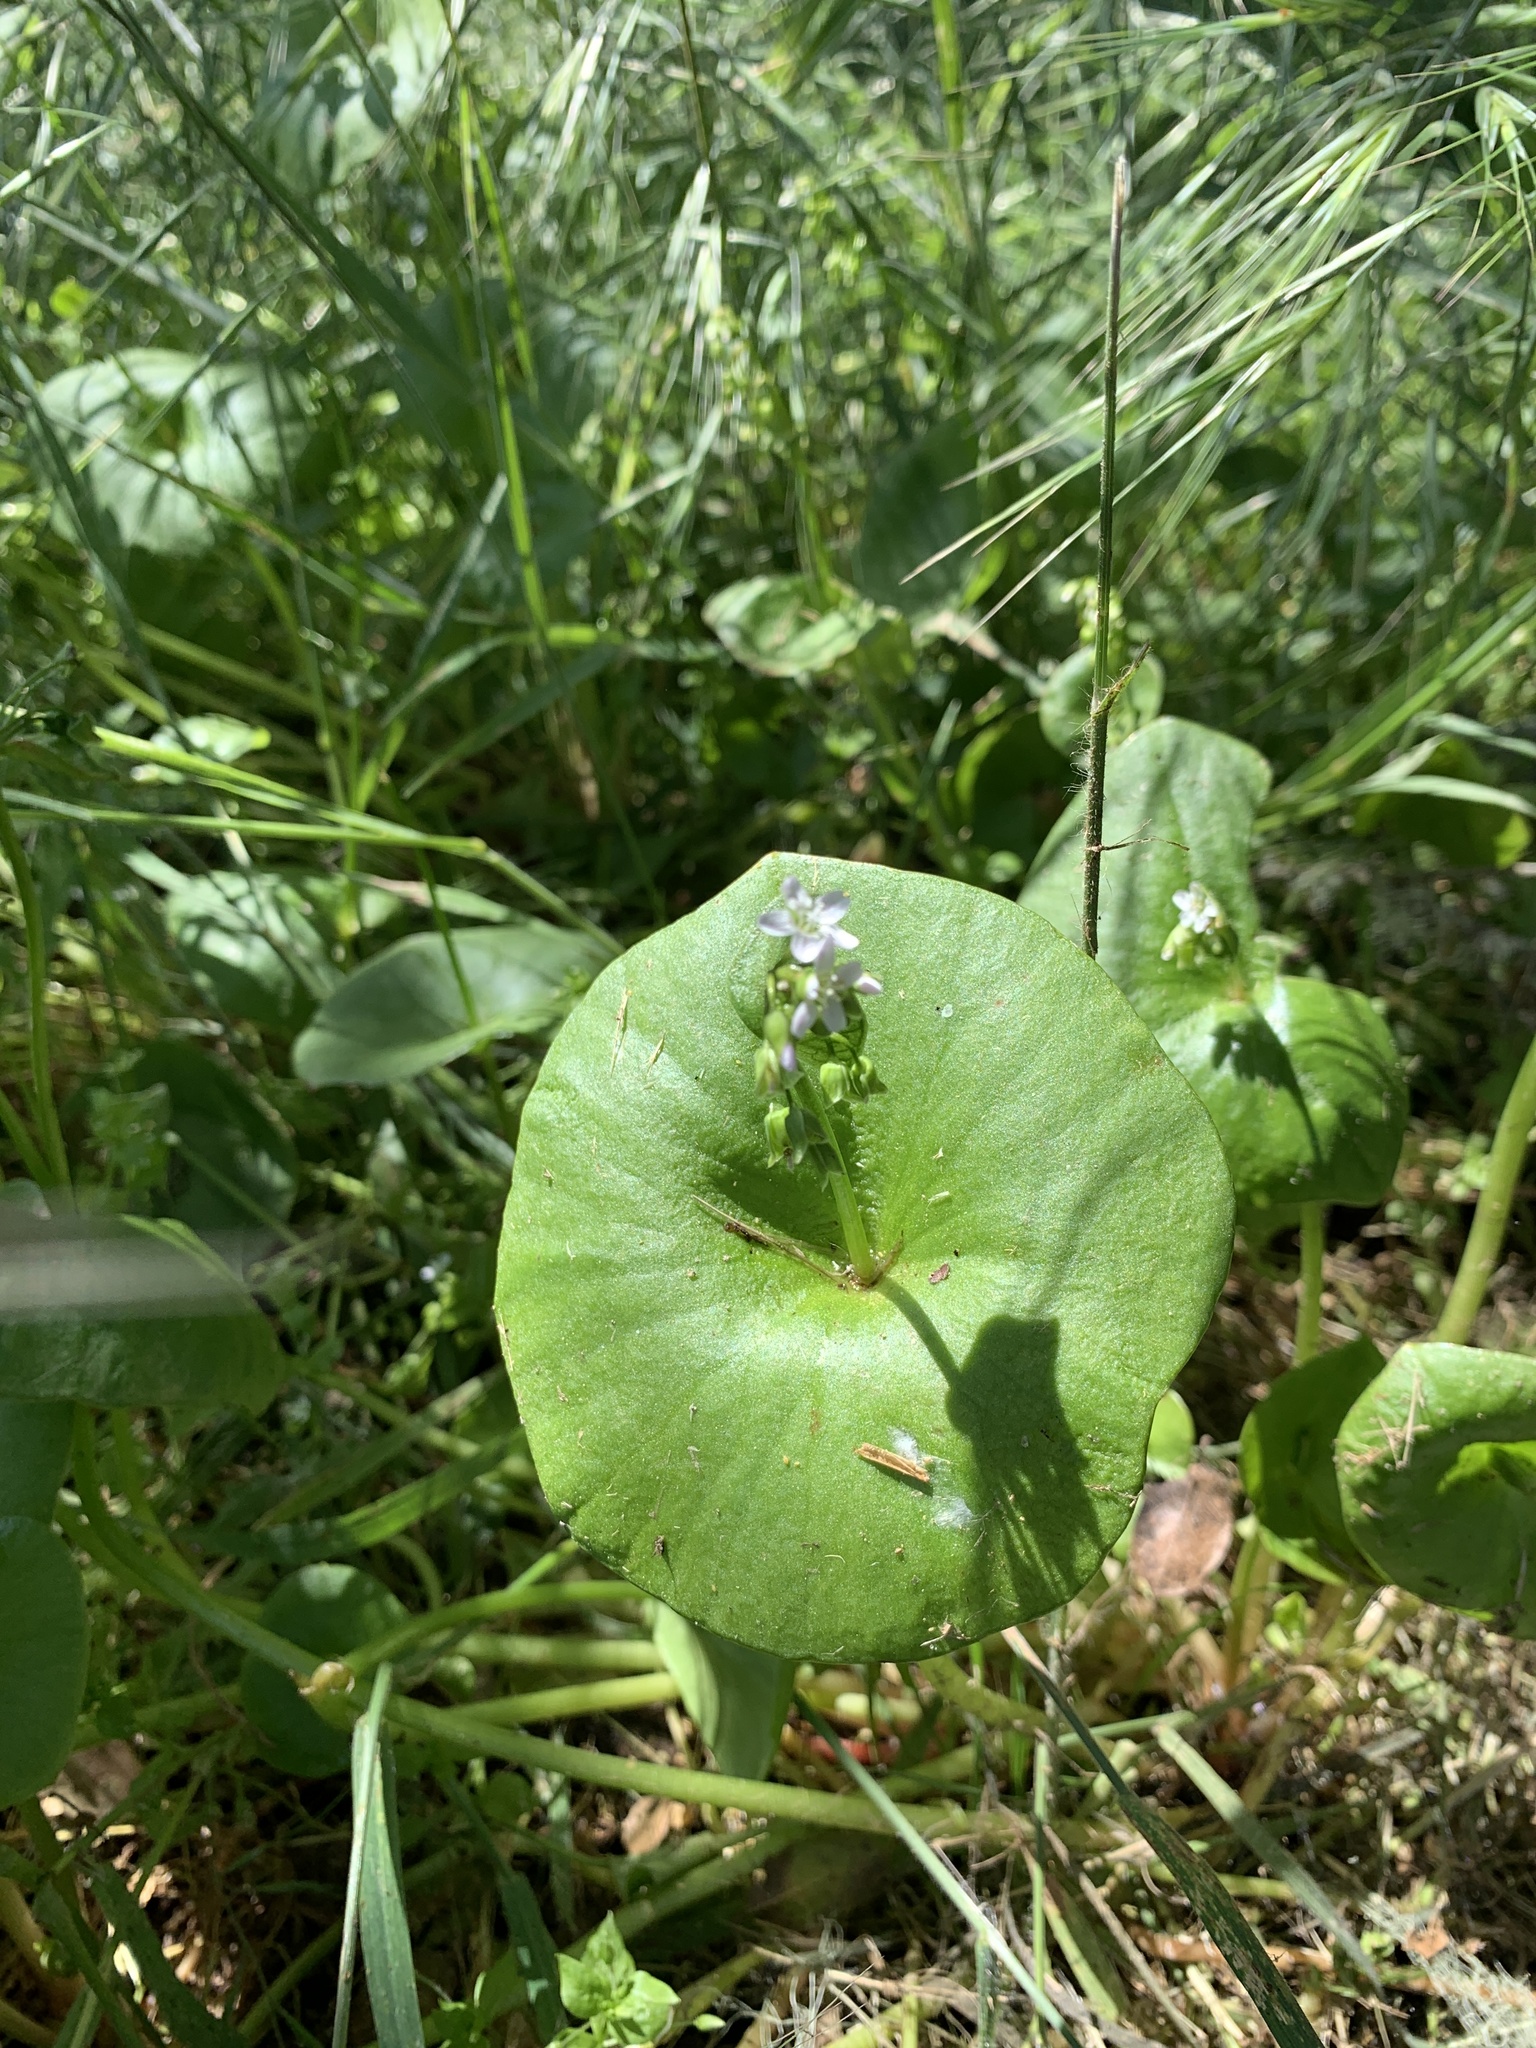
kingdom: Plantae
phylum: Tracheophyta
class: Magnoliopsida
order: Caryophyllales
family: Montiaceae
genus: Claytonia
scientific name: Claytonia perfoliata
